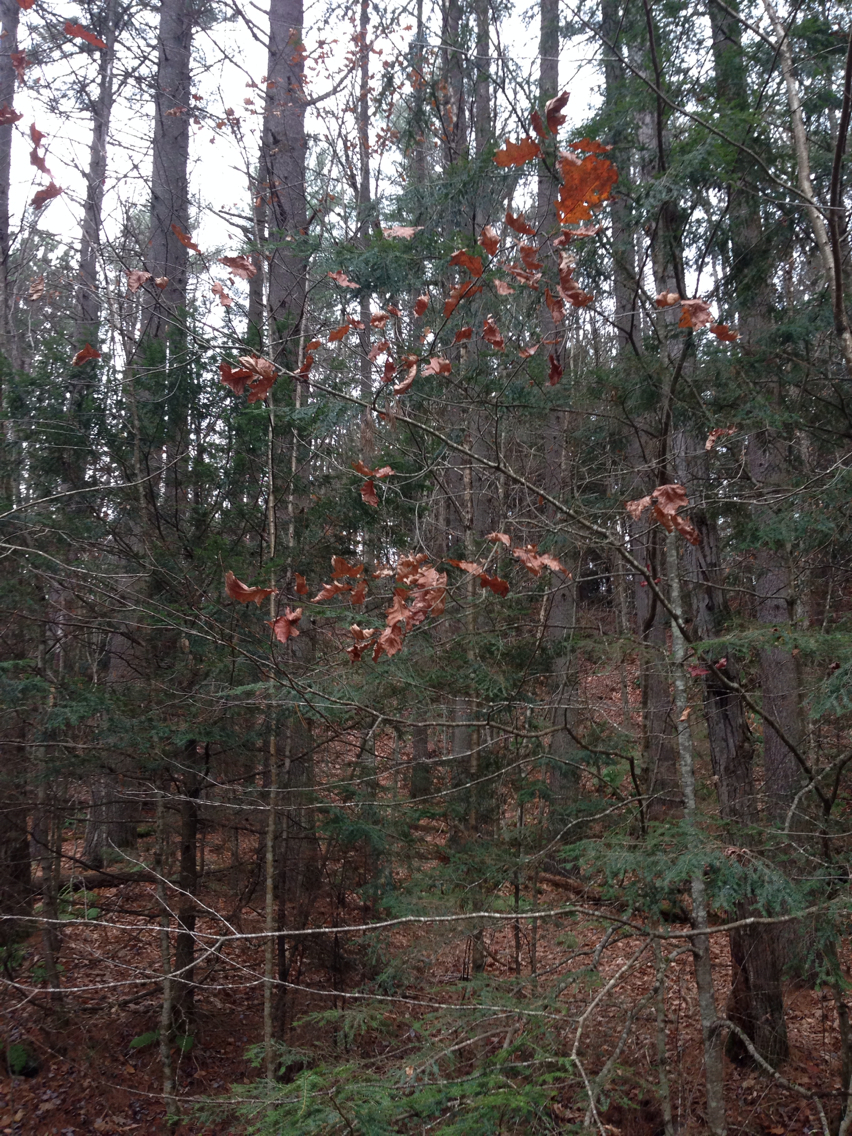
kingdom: Plantae
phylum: Tracheophyta
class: Magnoliopsida
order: Fagales
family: Fagaceae
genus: Quercus
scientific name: Quercus rubra
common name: Red oak
